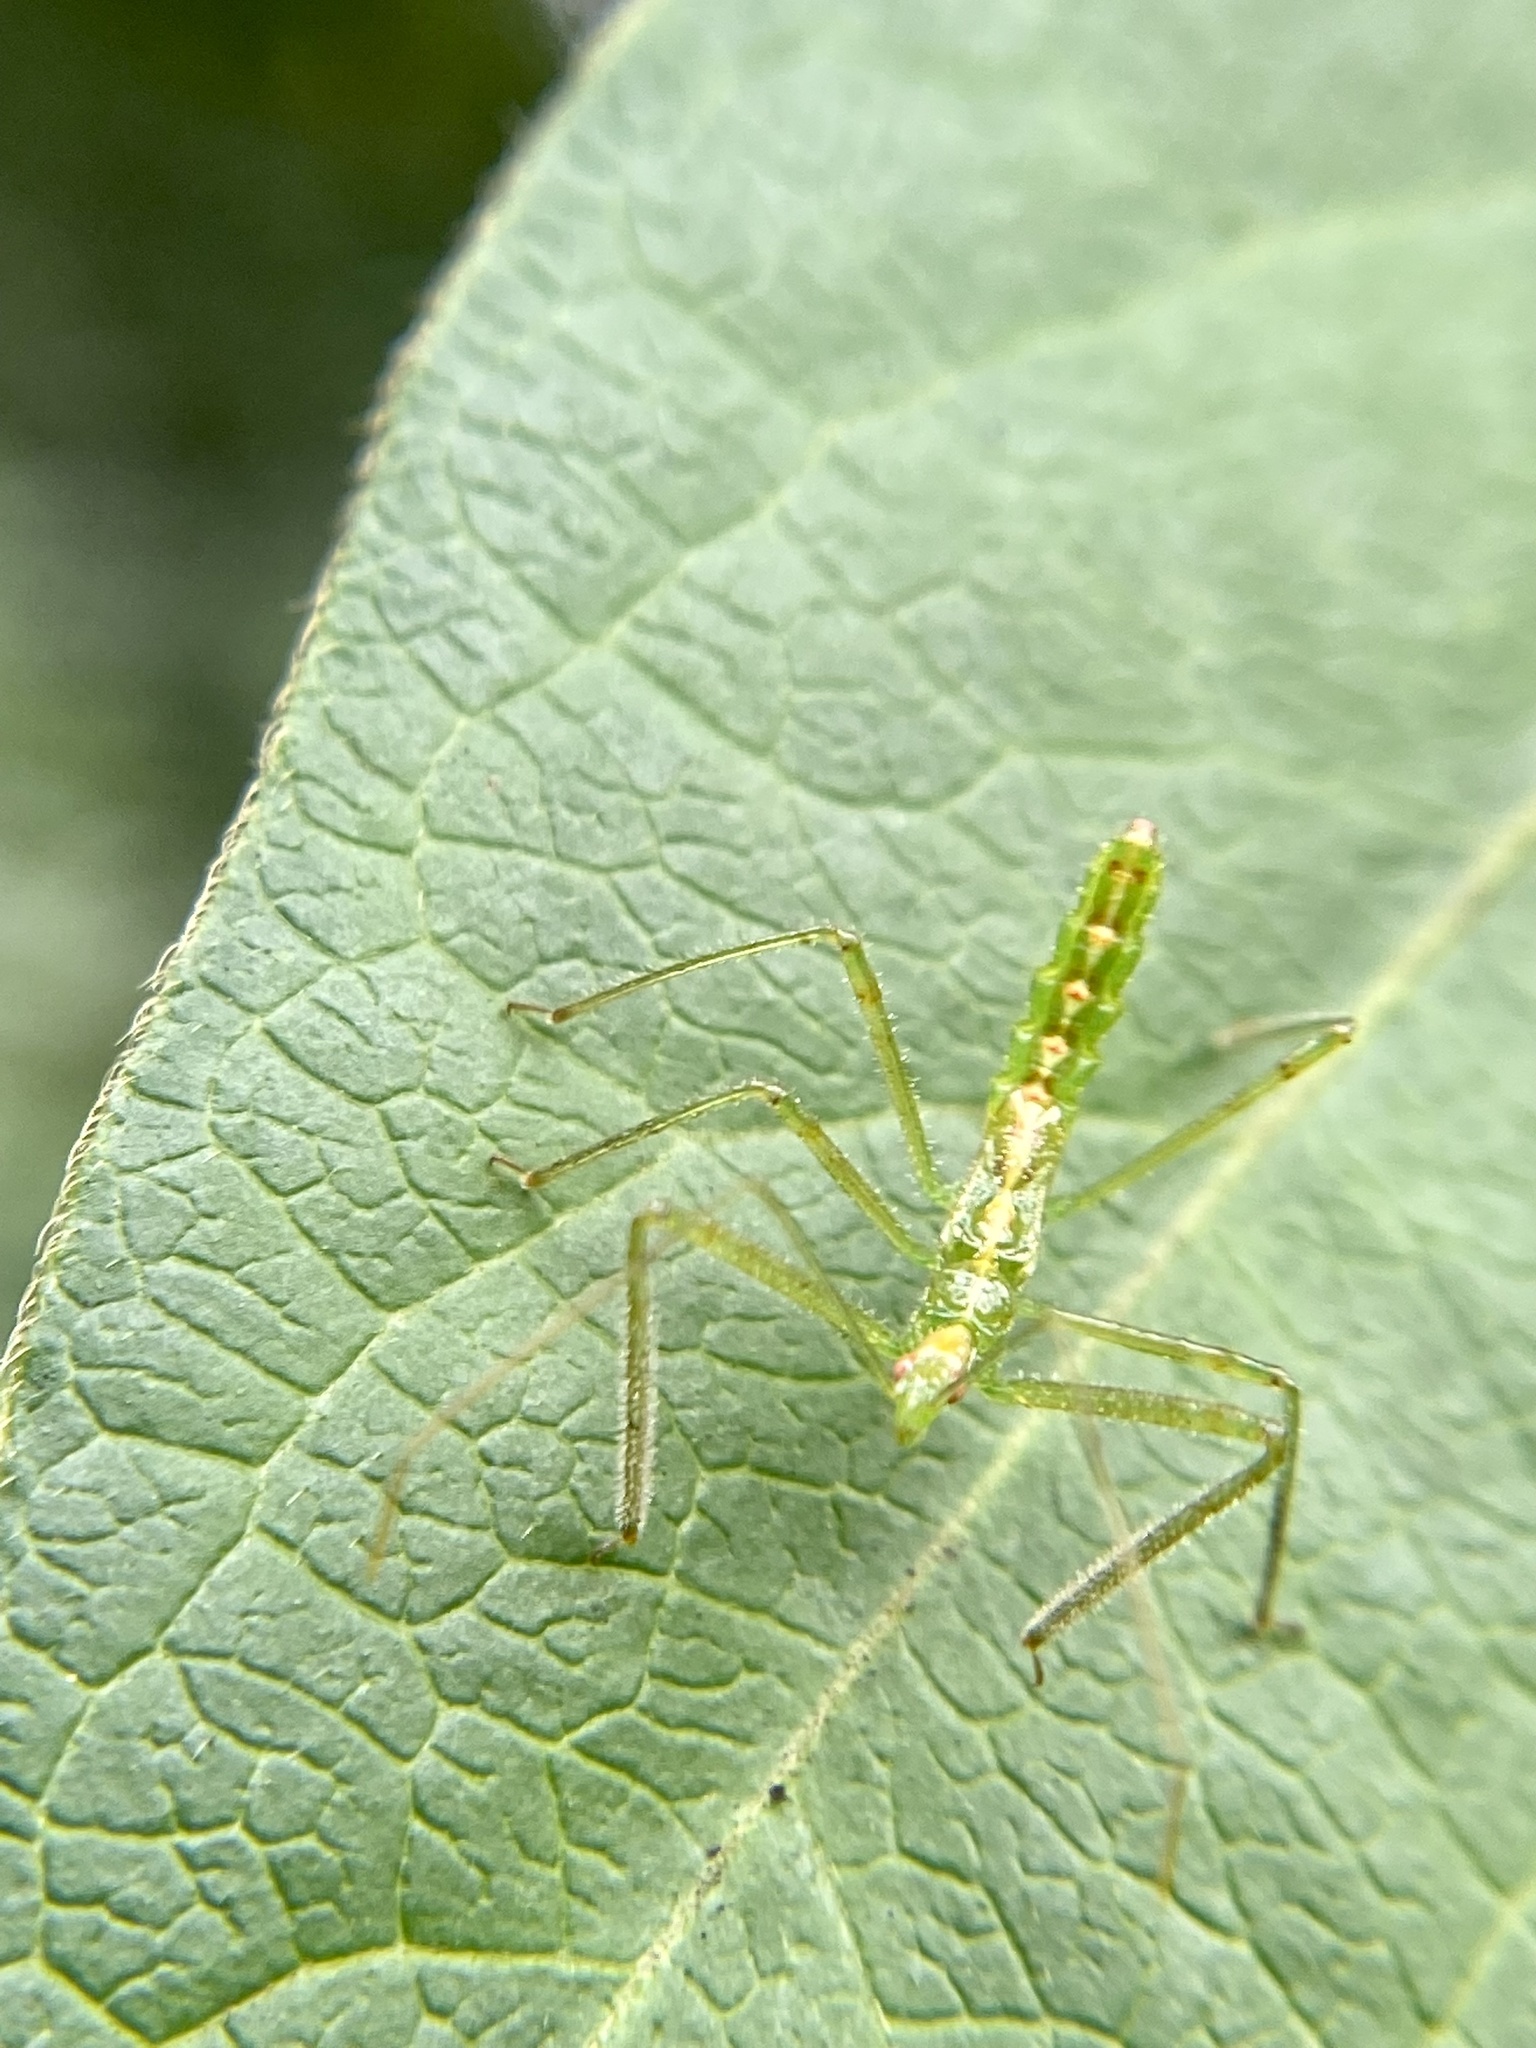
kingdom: Animalia
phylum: Arthropoda
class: Insecta
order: Hemiptera
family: Reduviidae
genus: Zelus
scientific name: Zelus luridus
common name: Pale green assassin bug
